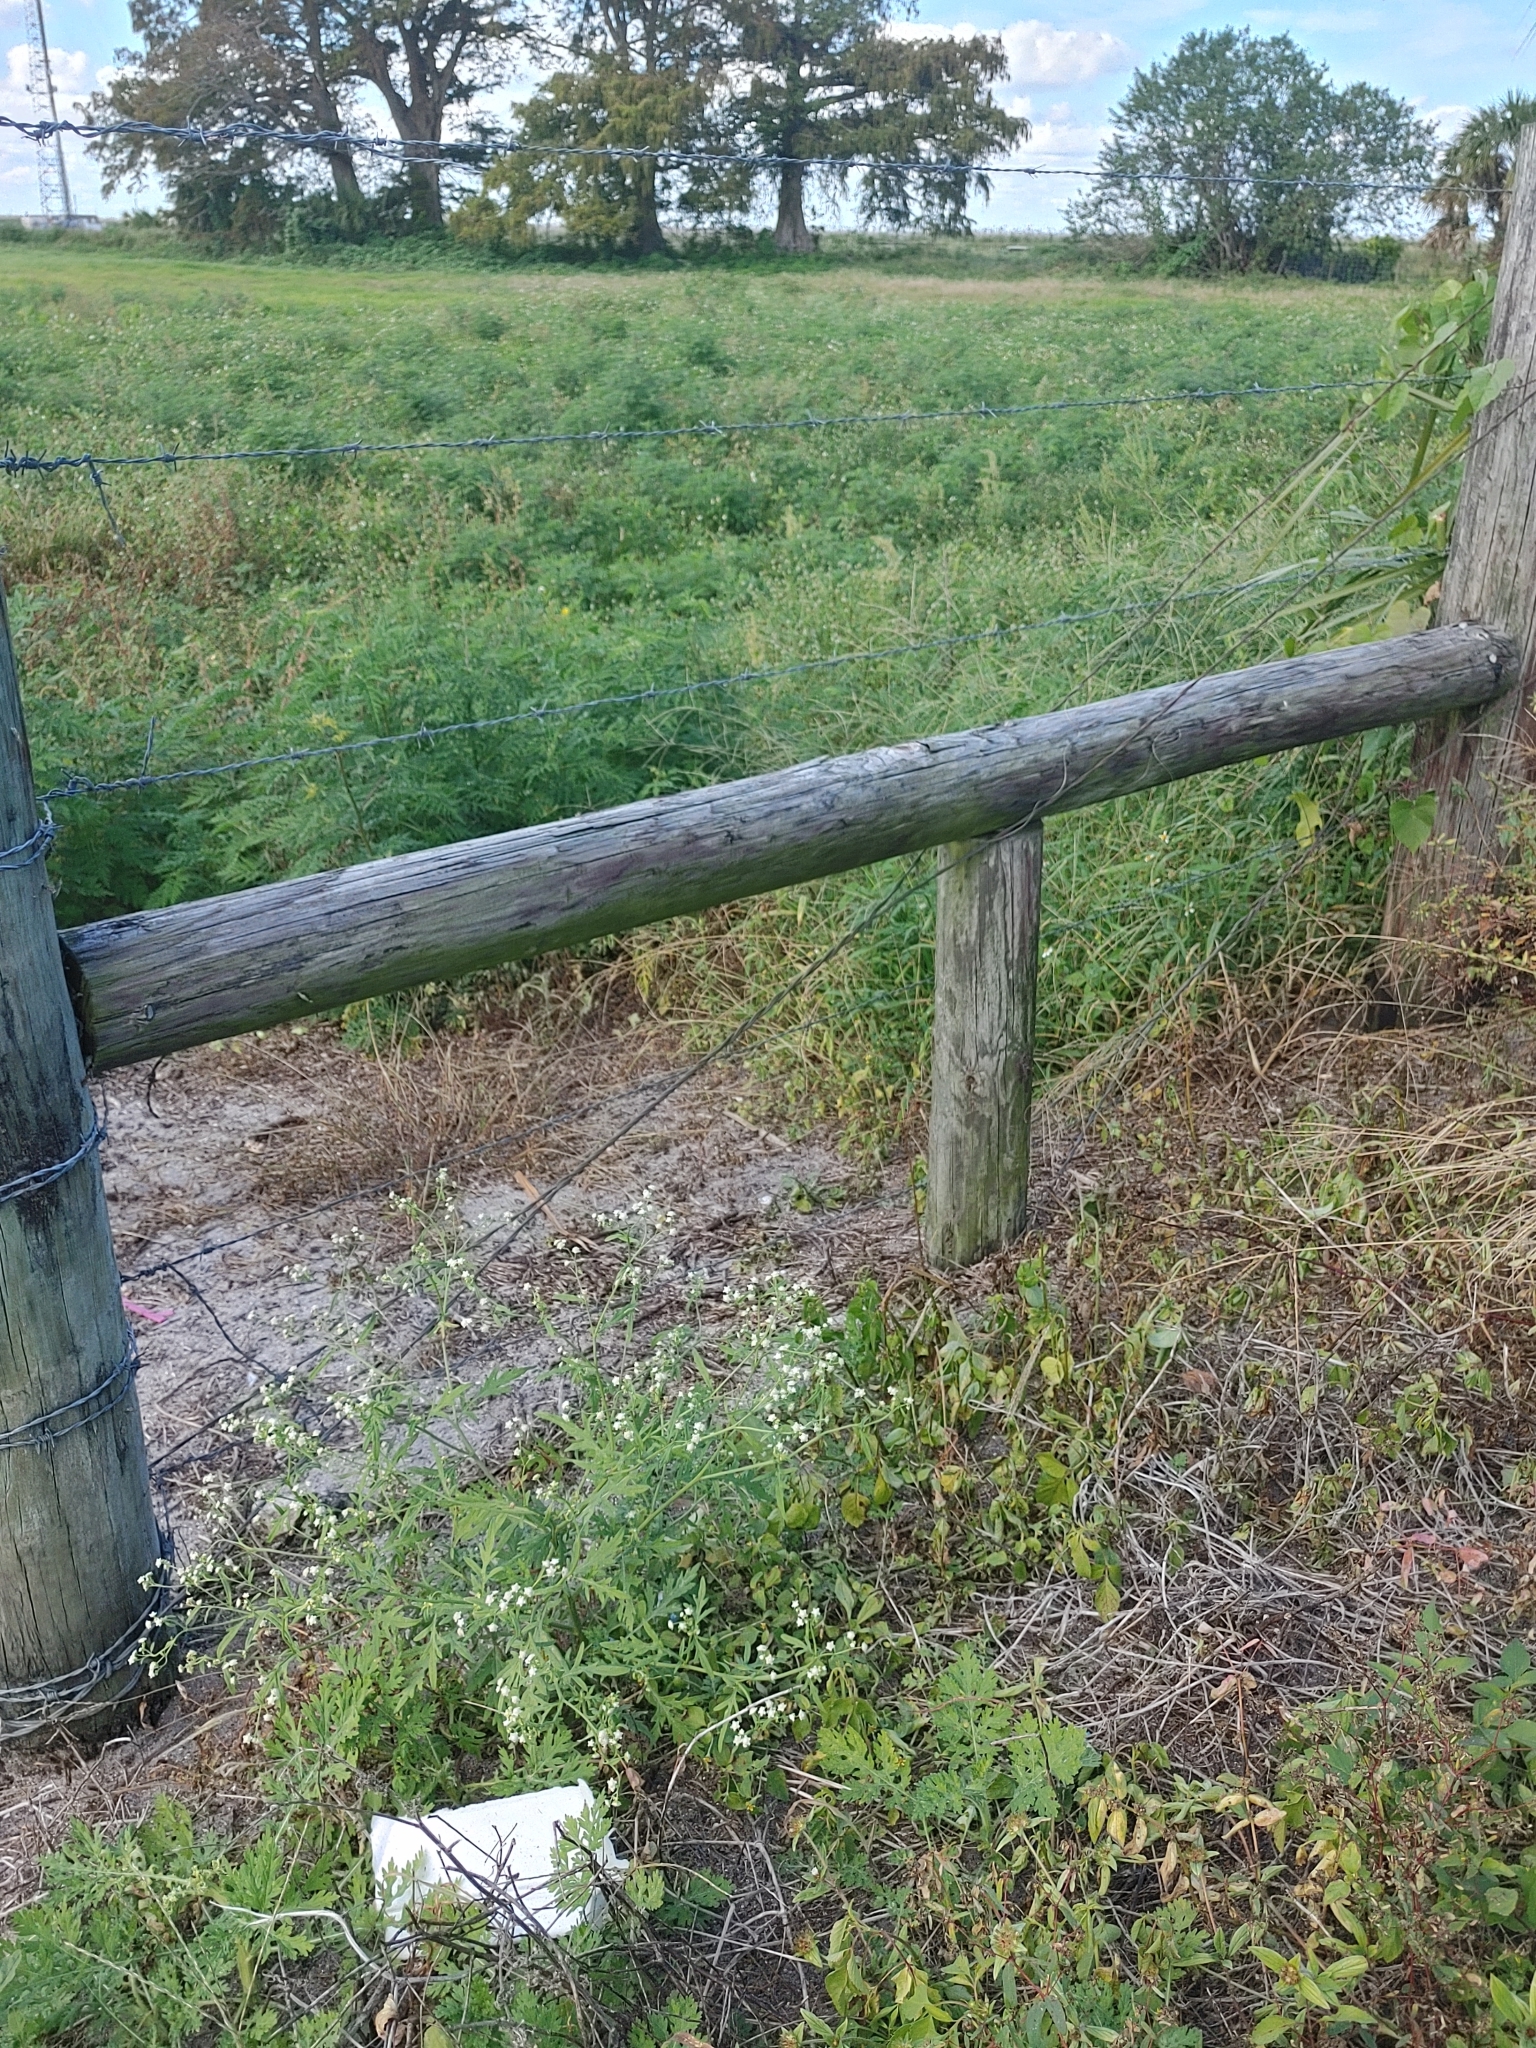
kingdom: Plantae
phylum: Tracheophyta
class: Magnoliopsida
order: Asterales
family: Asteraceae
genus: Parthenium
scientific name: Parthenium hysterophorus
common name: Santa maria feverfew
